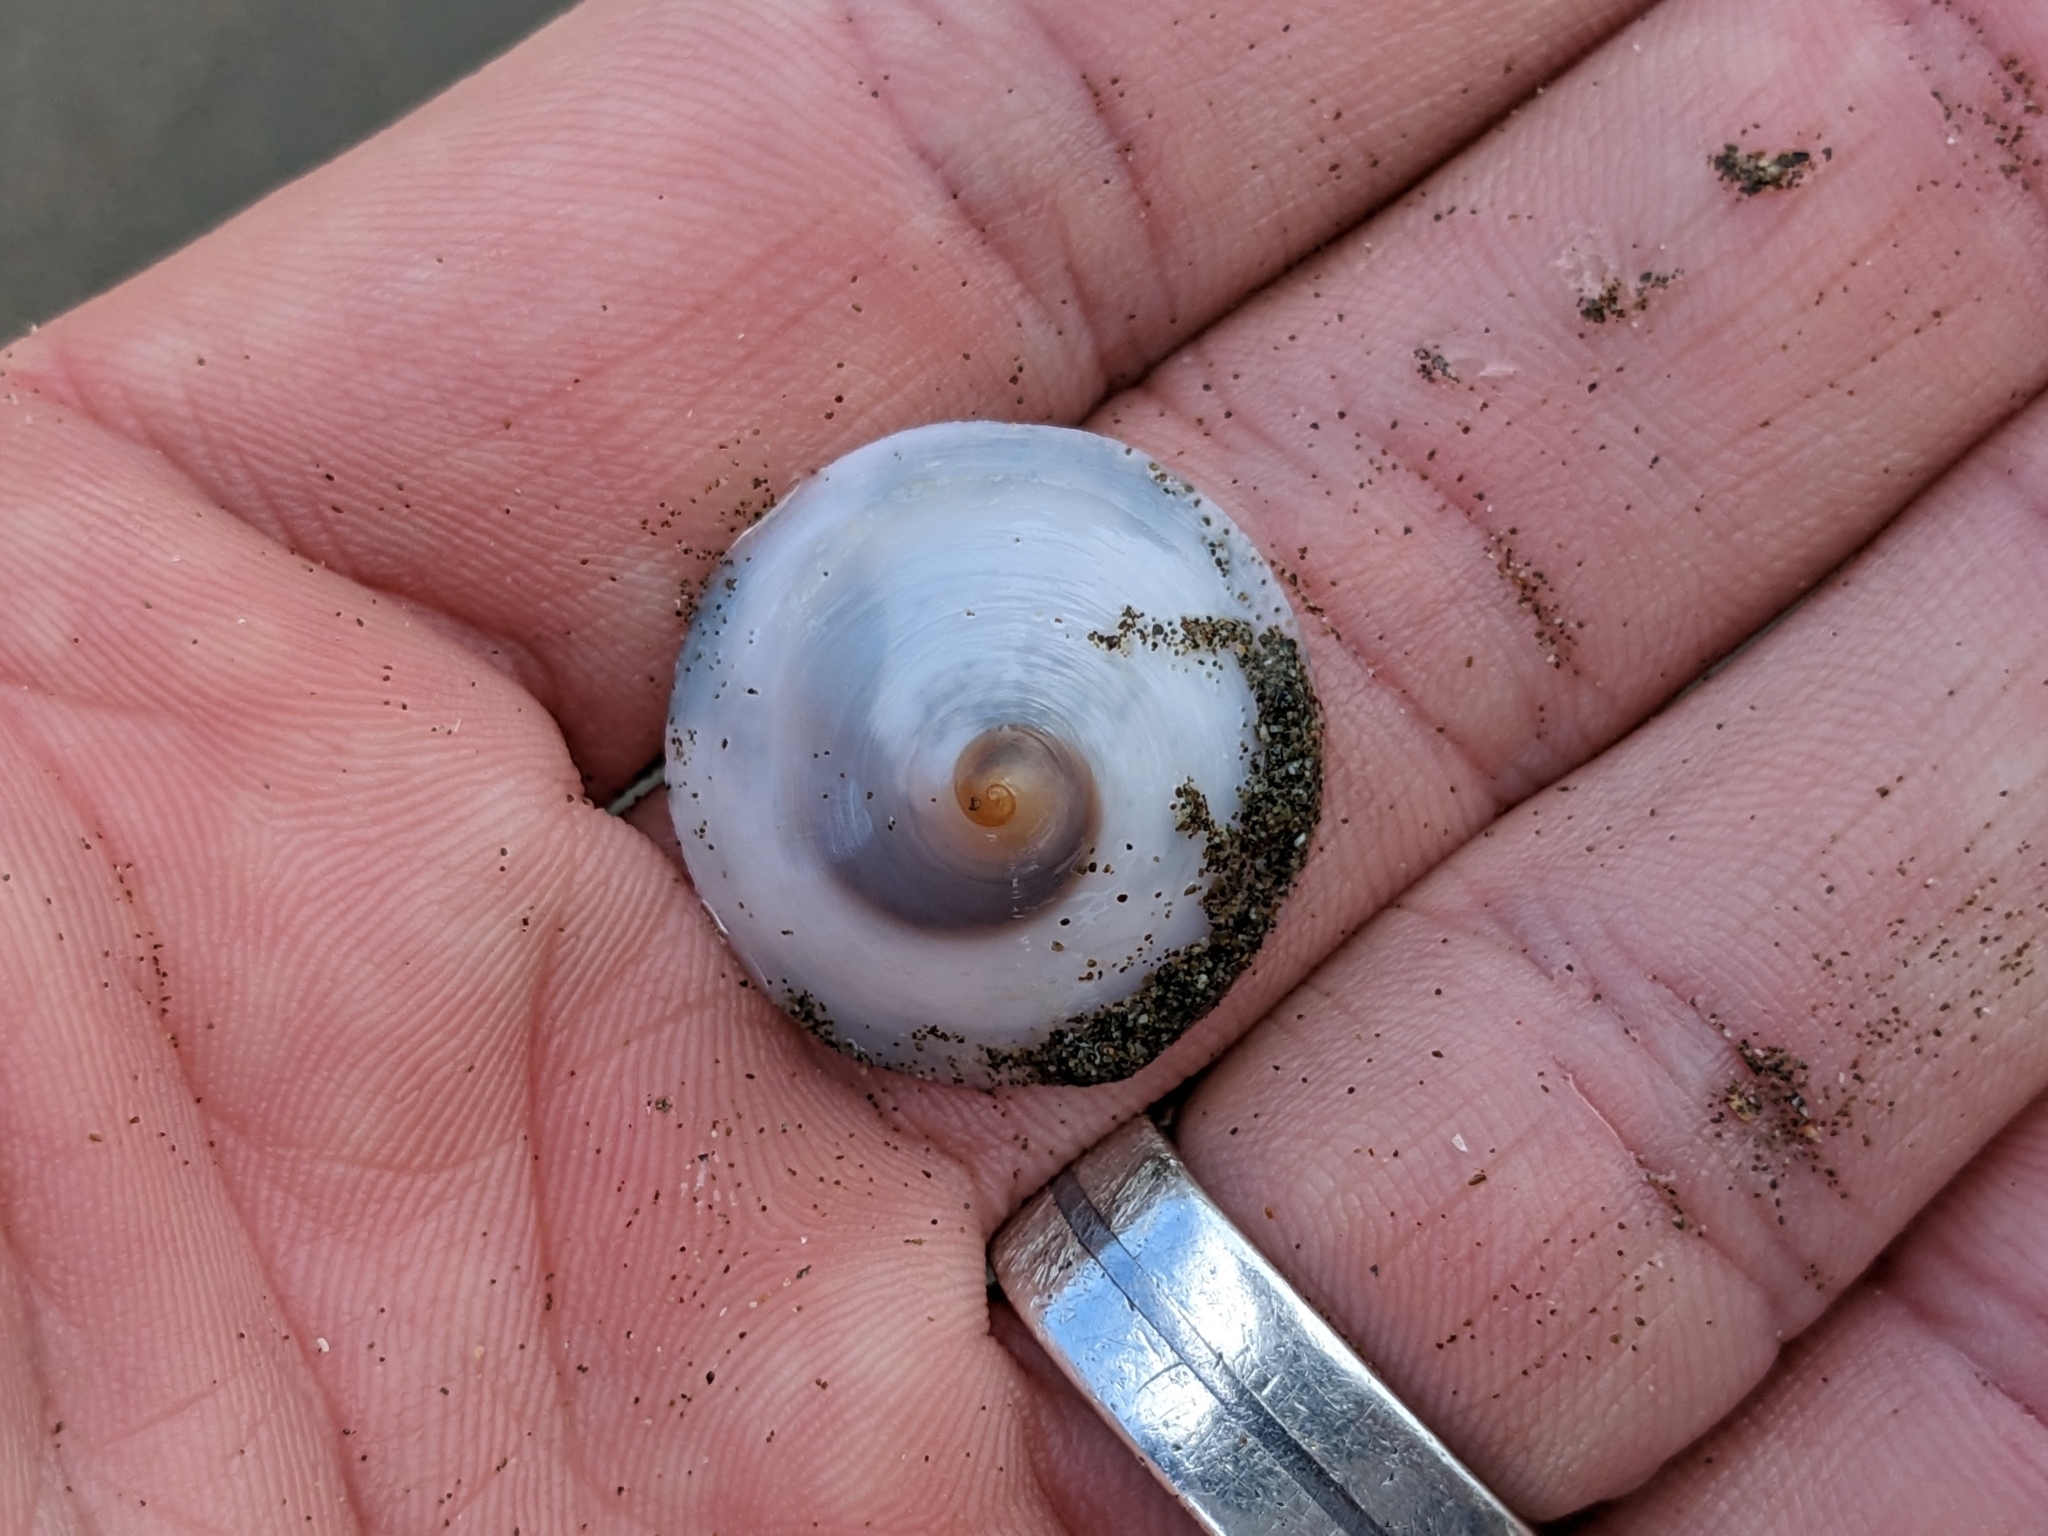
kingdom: Animalia
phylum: Mollusca
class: Gastropoda
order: Littorinimorpha
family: Calyptraeidae
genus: Calyptraea
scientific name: Calyptraea mamillaris
